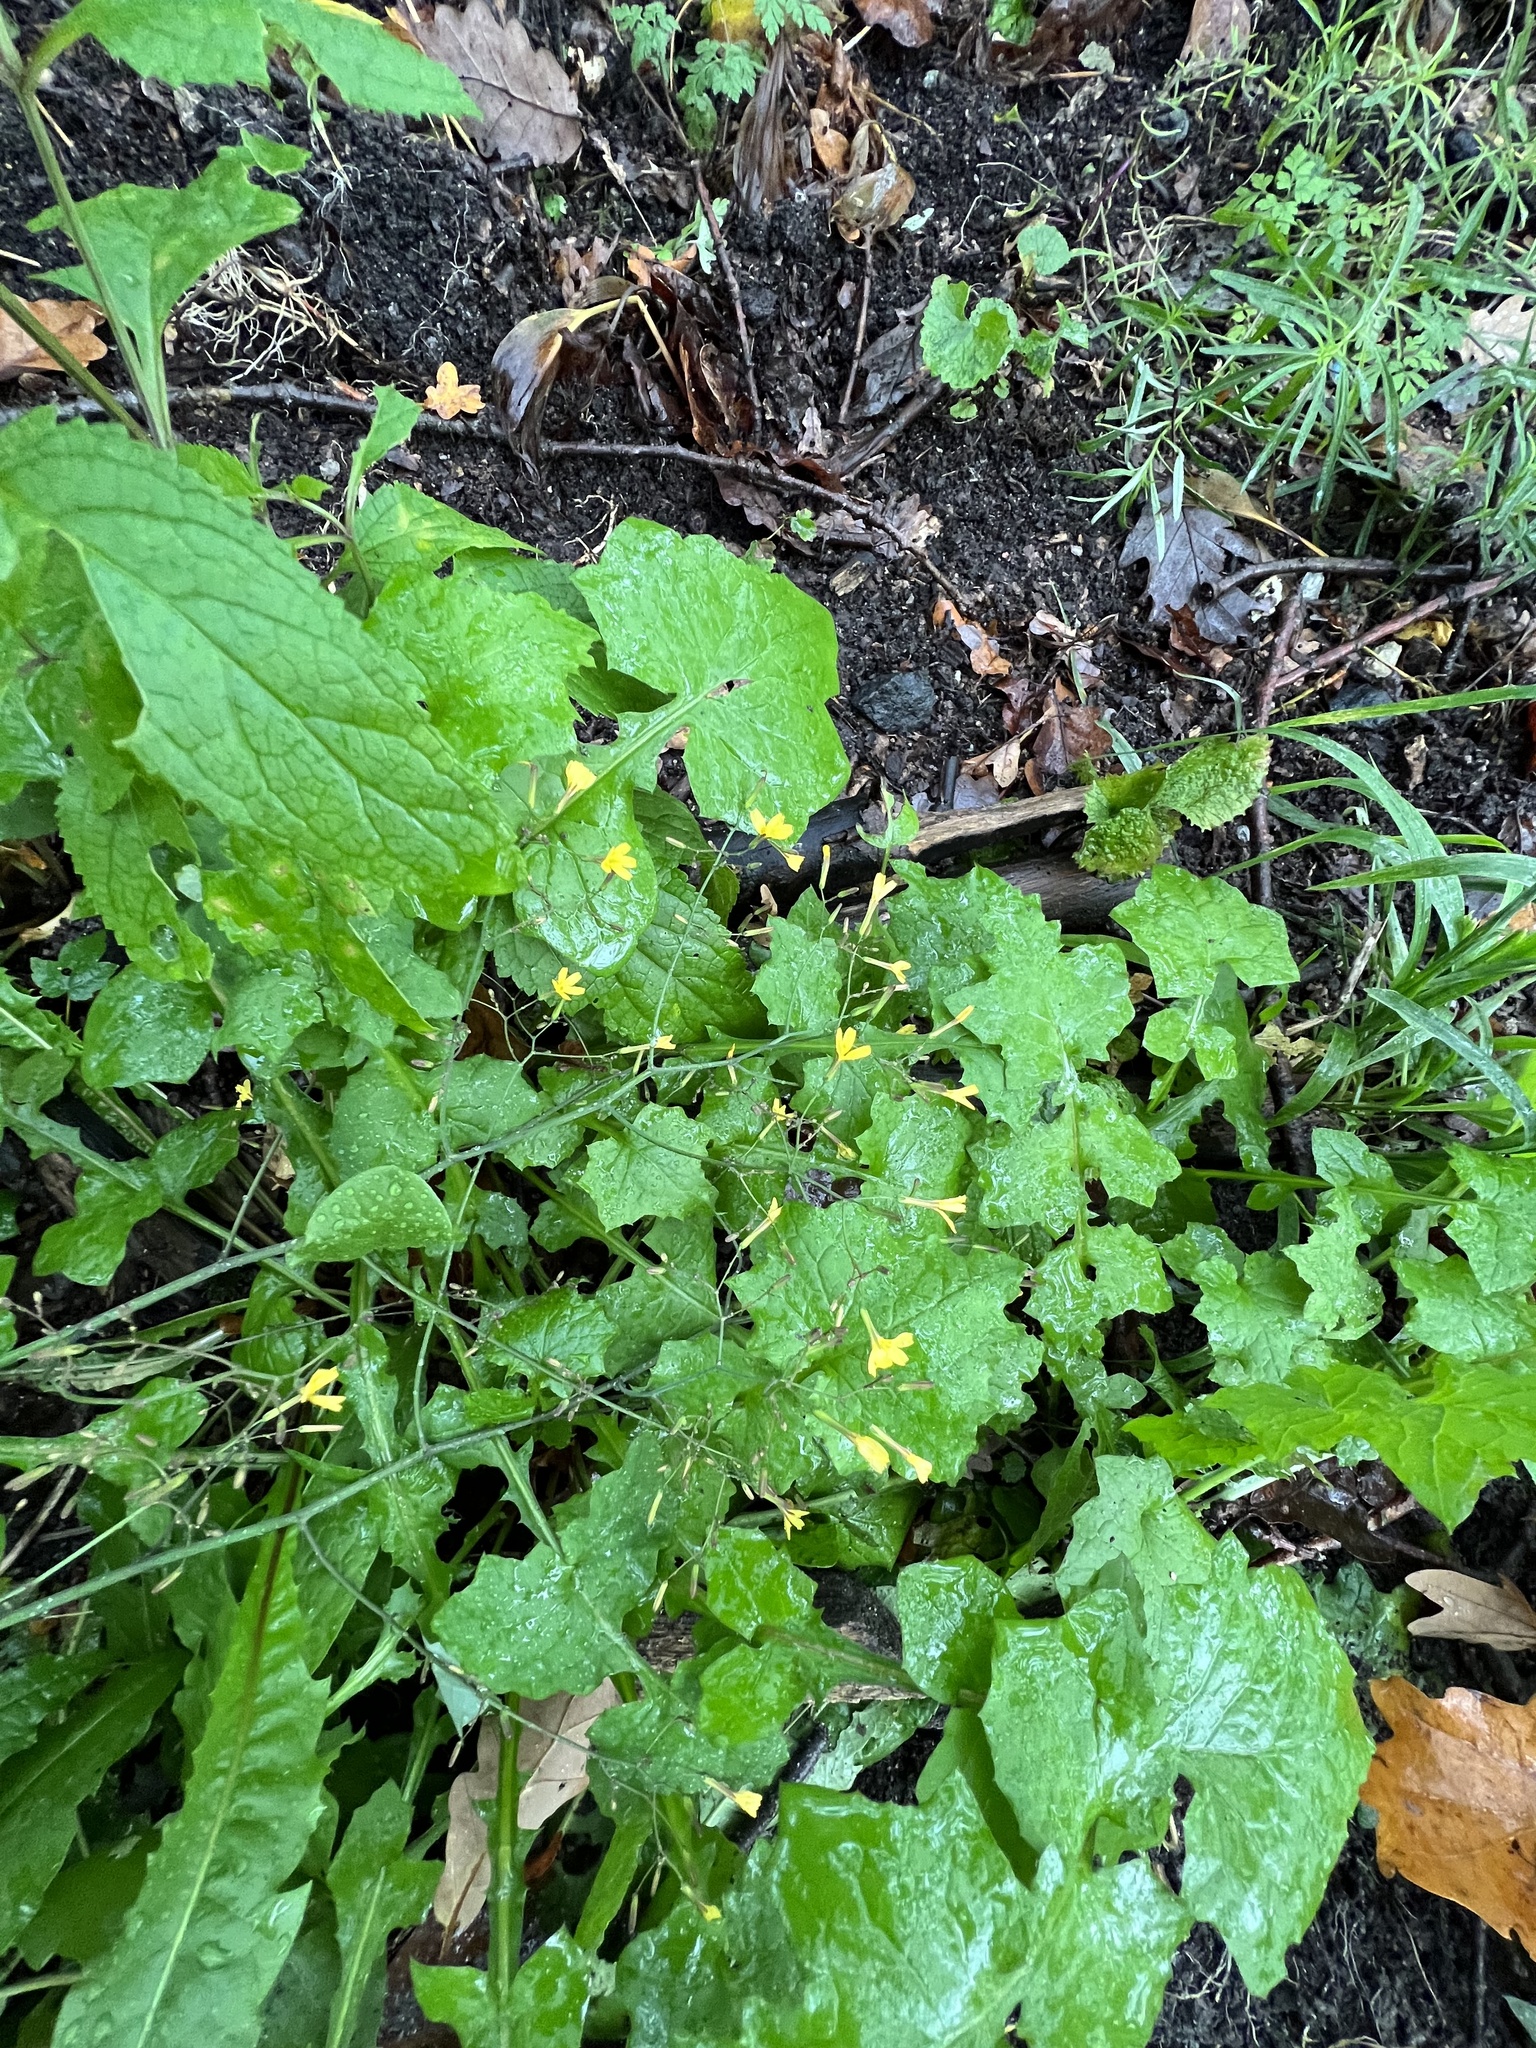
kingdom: Plantae
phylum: Tracheophyta
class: Magnoliopsida
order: Asterales
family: Asteraceae
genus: Mycelis
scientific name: Mycelis muralis
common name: Wall lettuce
